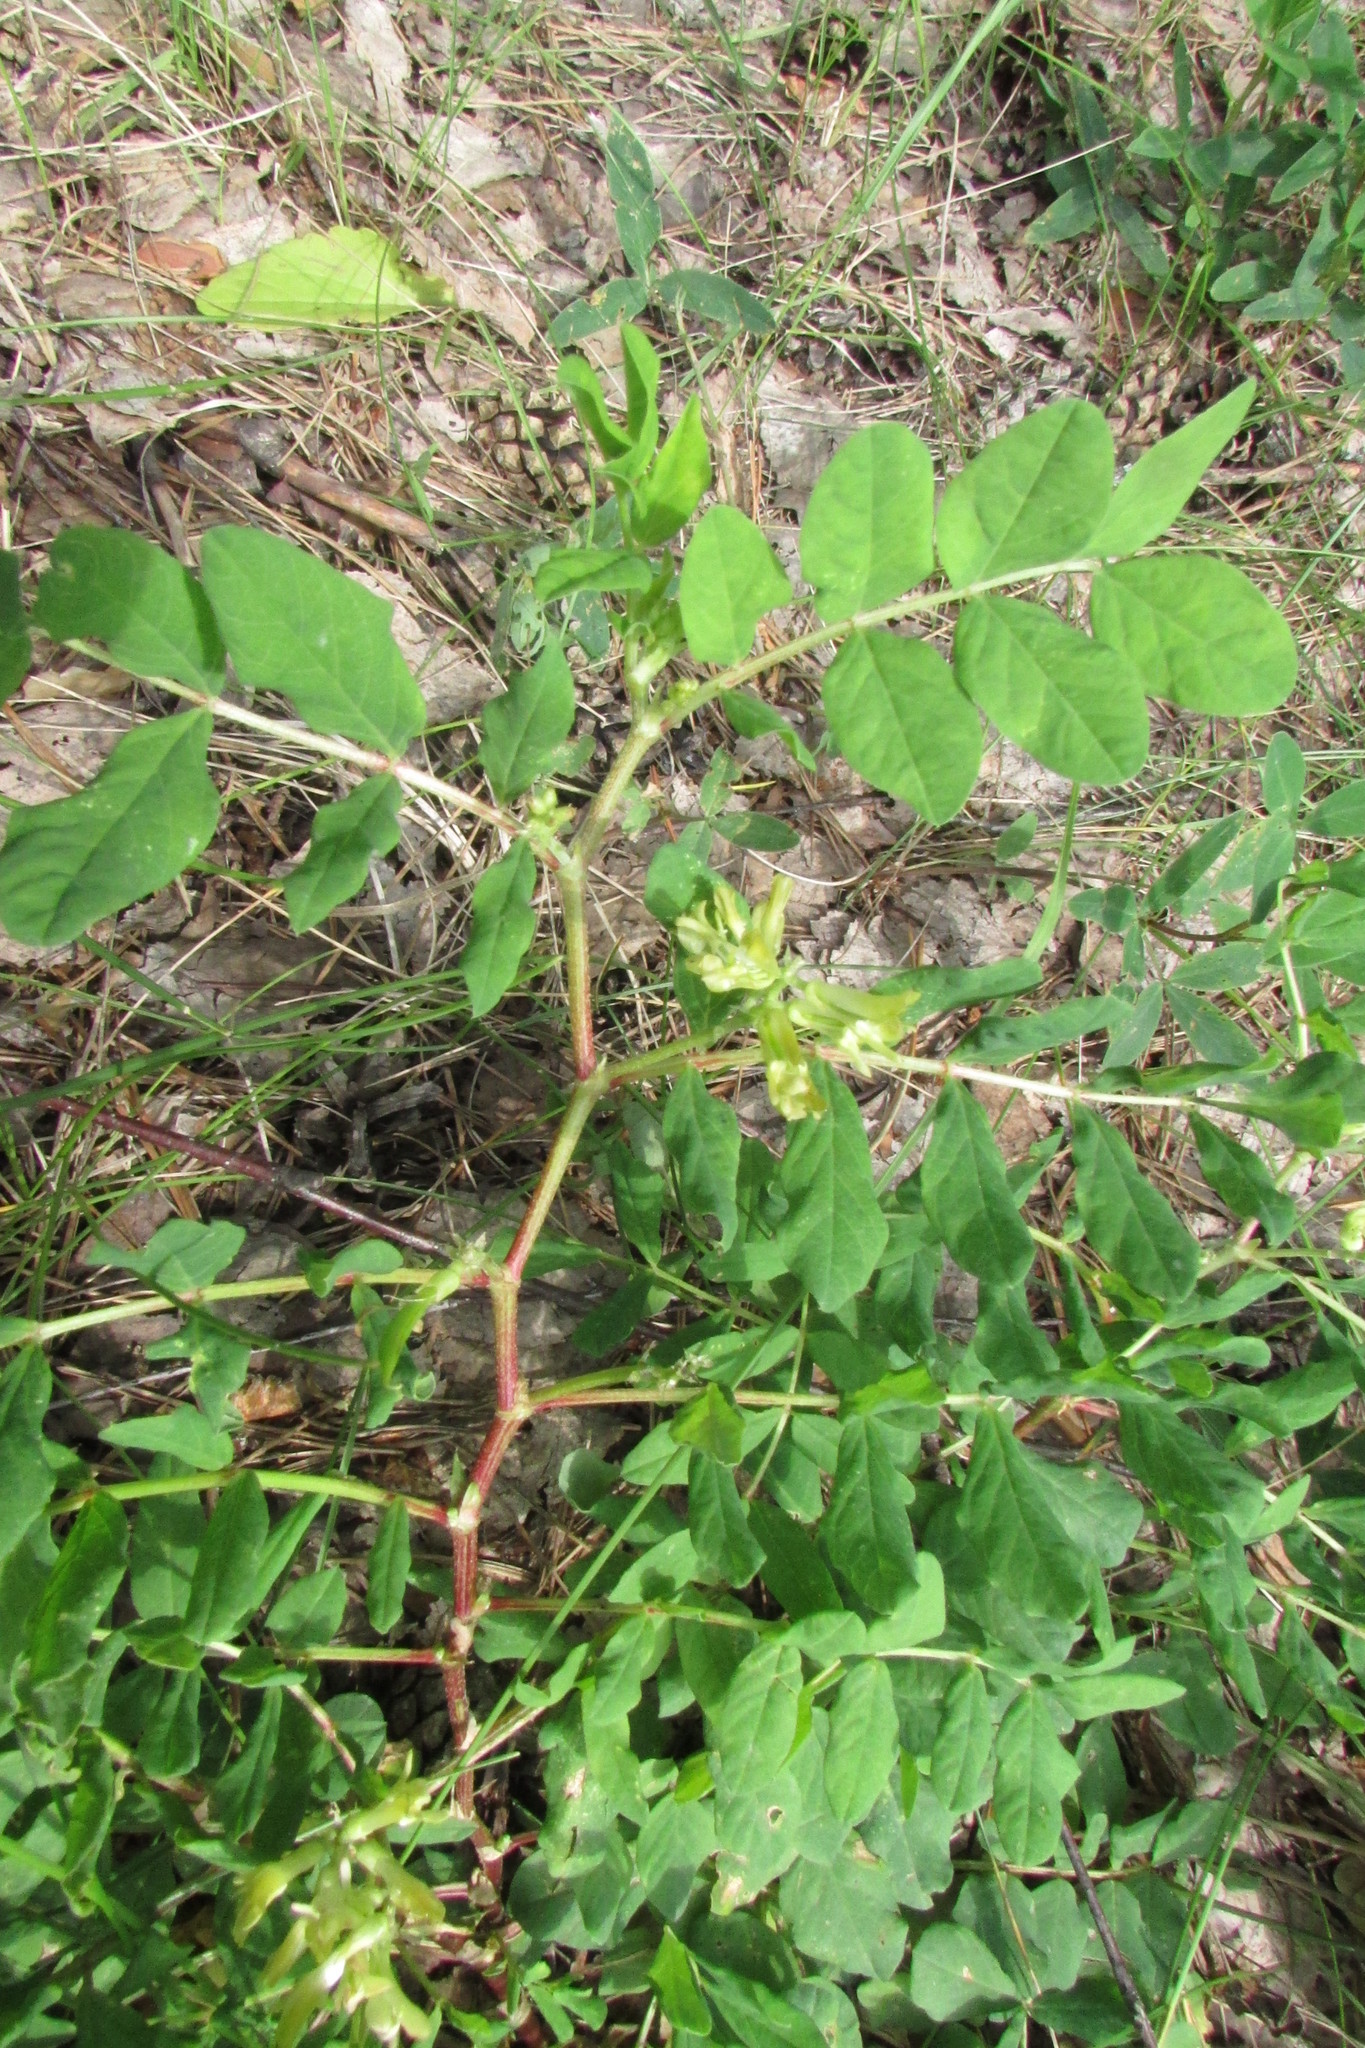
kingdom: Plantae
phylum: Tracheophyta
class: Magnoliopsida
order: Fabales
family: Fabaceae
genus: Astragalus
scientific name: Astragalus glycyphyllos
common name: Wild liquorice
